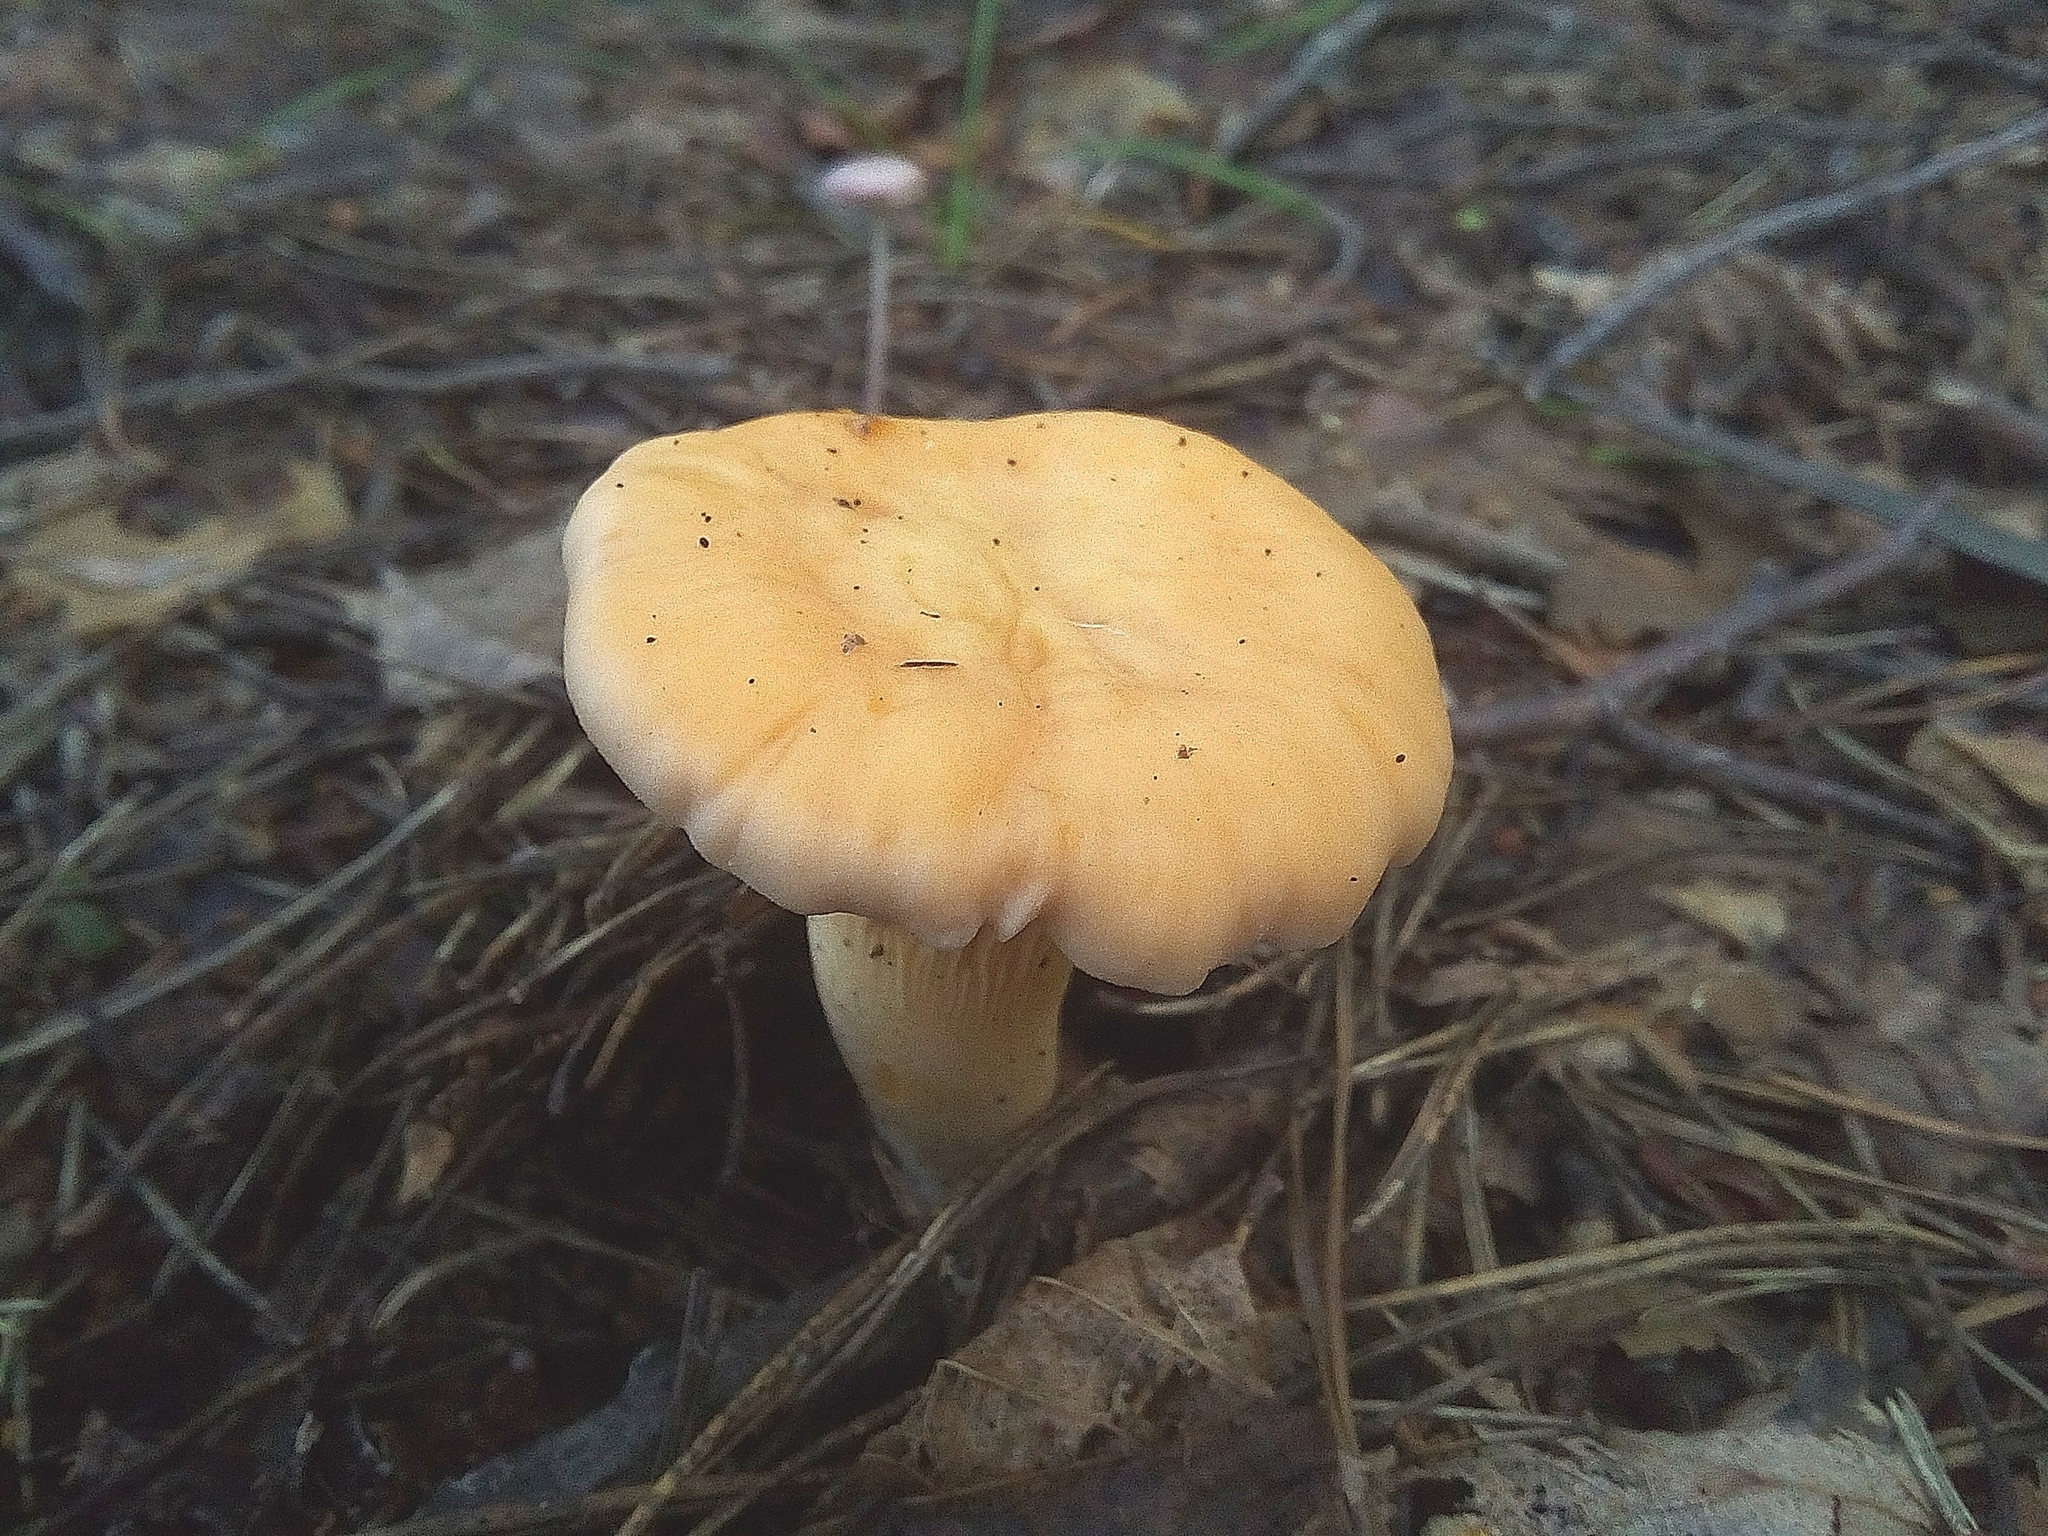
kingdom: Fungi
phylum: Basidiomycota
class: Agaricomycetes
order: Cantharellales
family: Hydnaceae
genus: Cantharellus
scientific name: Cantharellus cibarius
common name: Chanterelle
